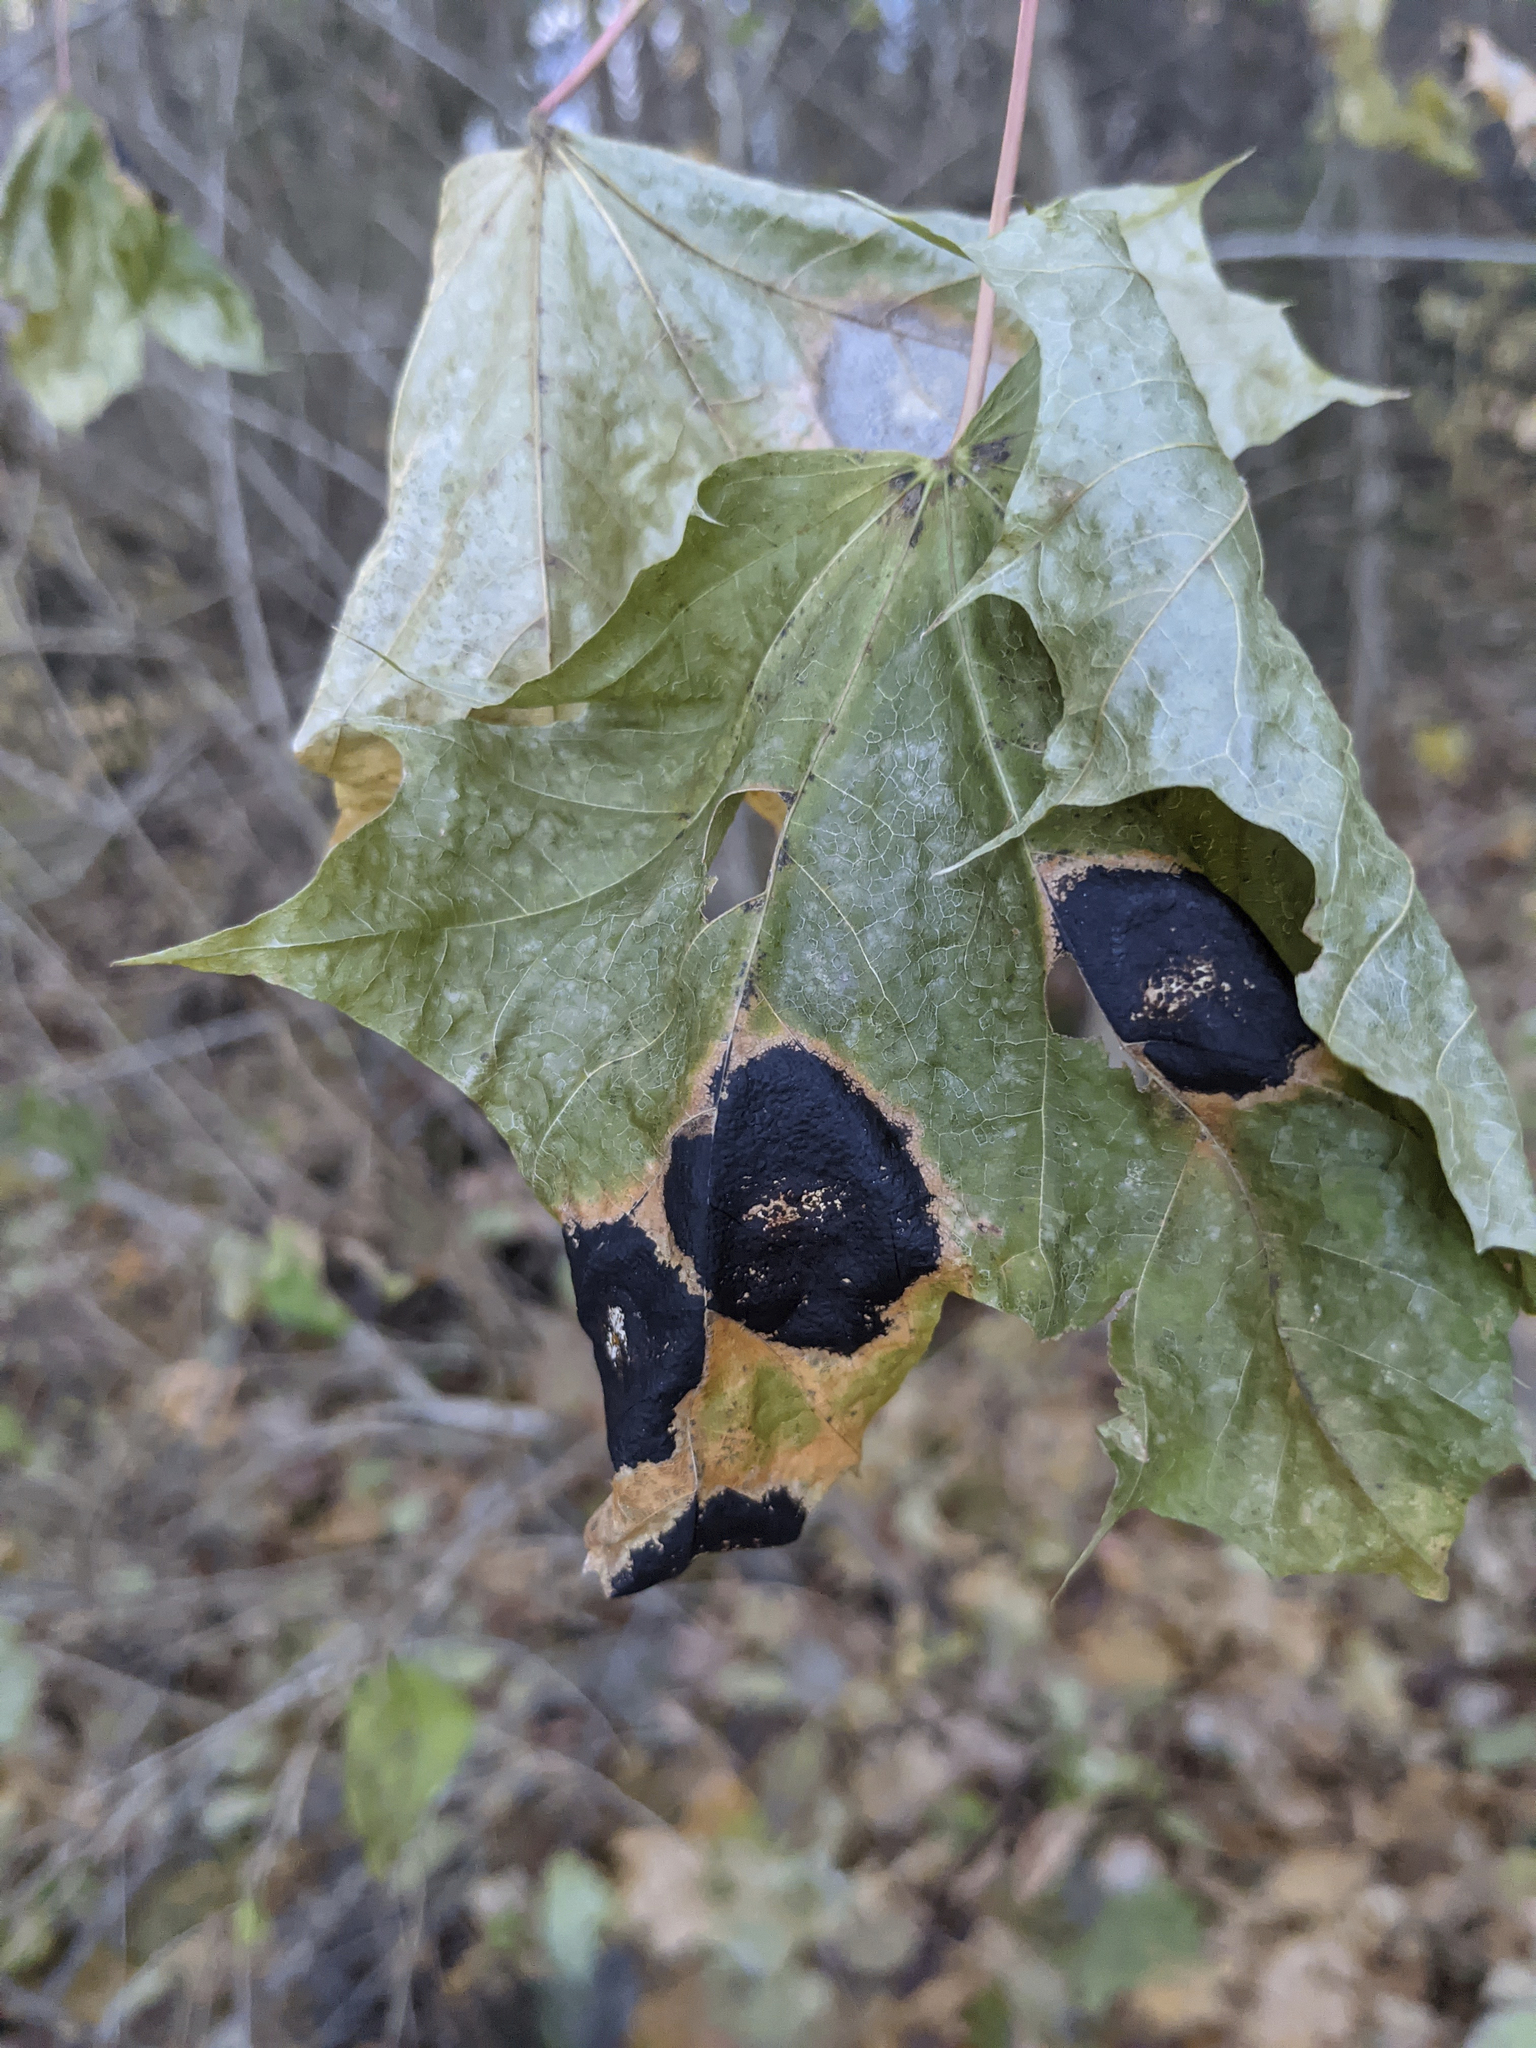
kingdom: Fungi
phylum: Ascomycota
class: Leotiomycetes
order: Rhytismatales
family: Rhytismataceae
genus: Rhytisma
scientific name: Rhytisma acerinum
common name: European tar spot
